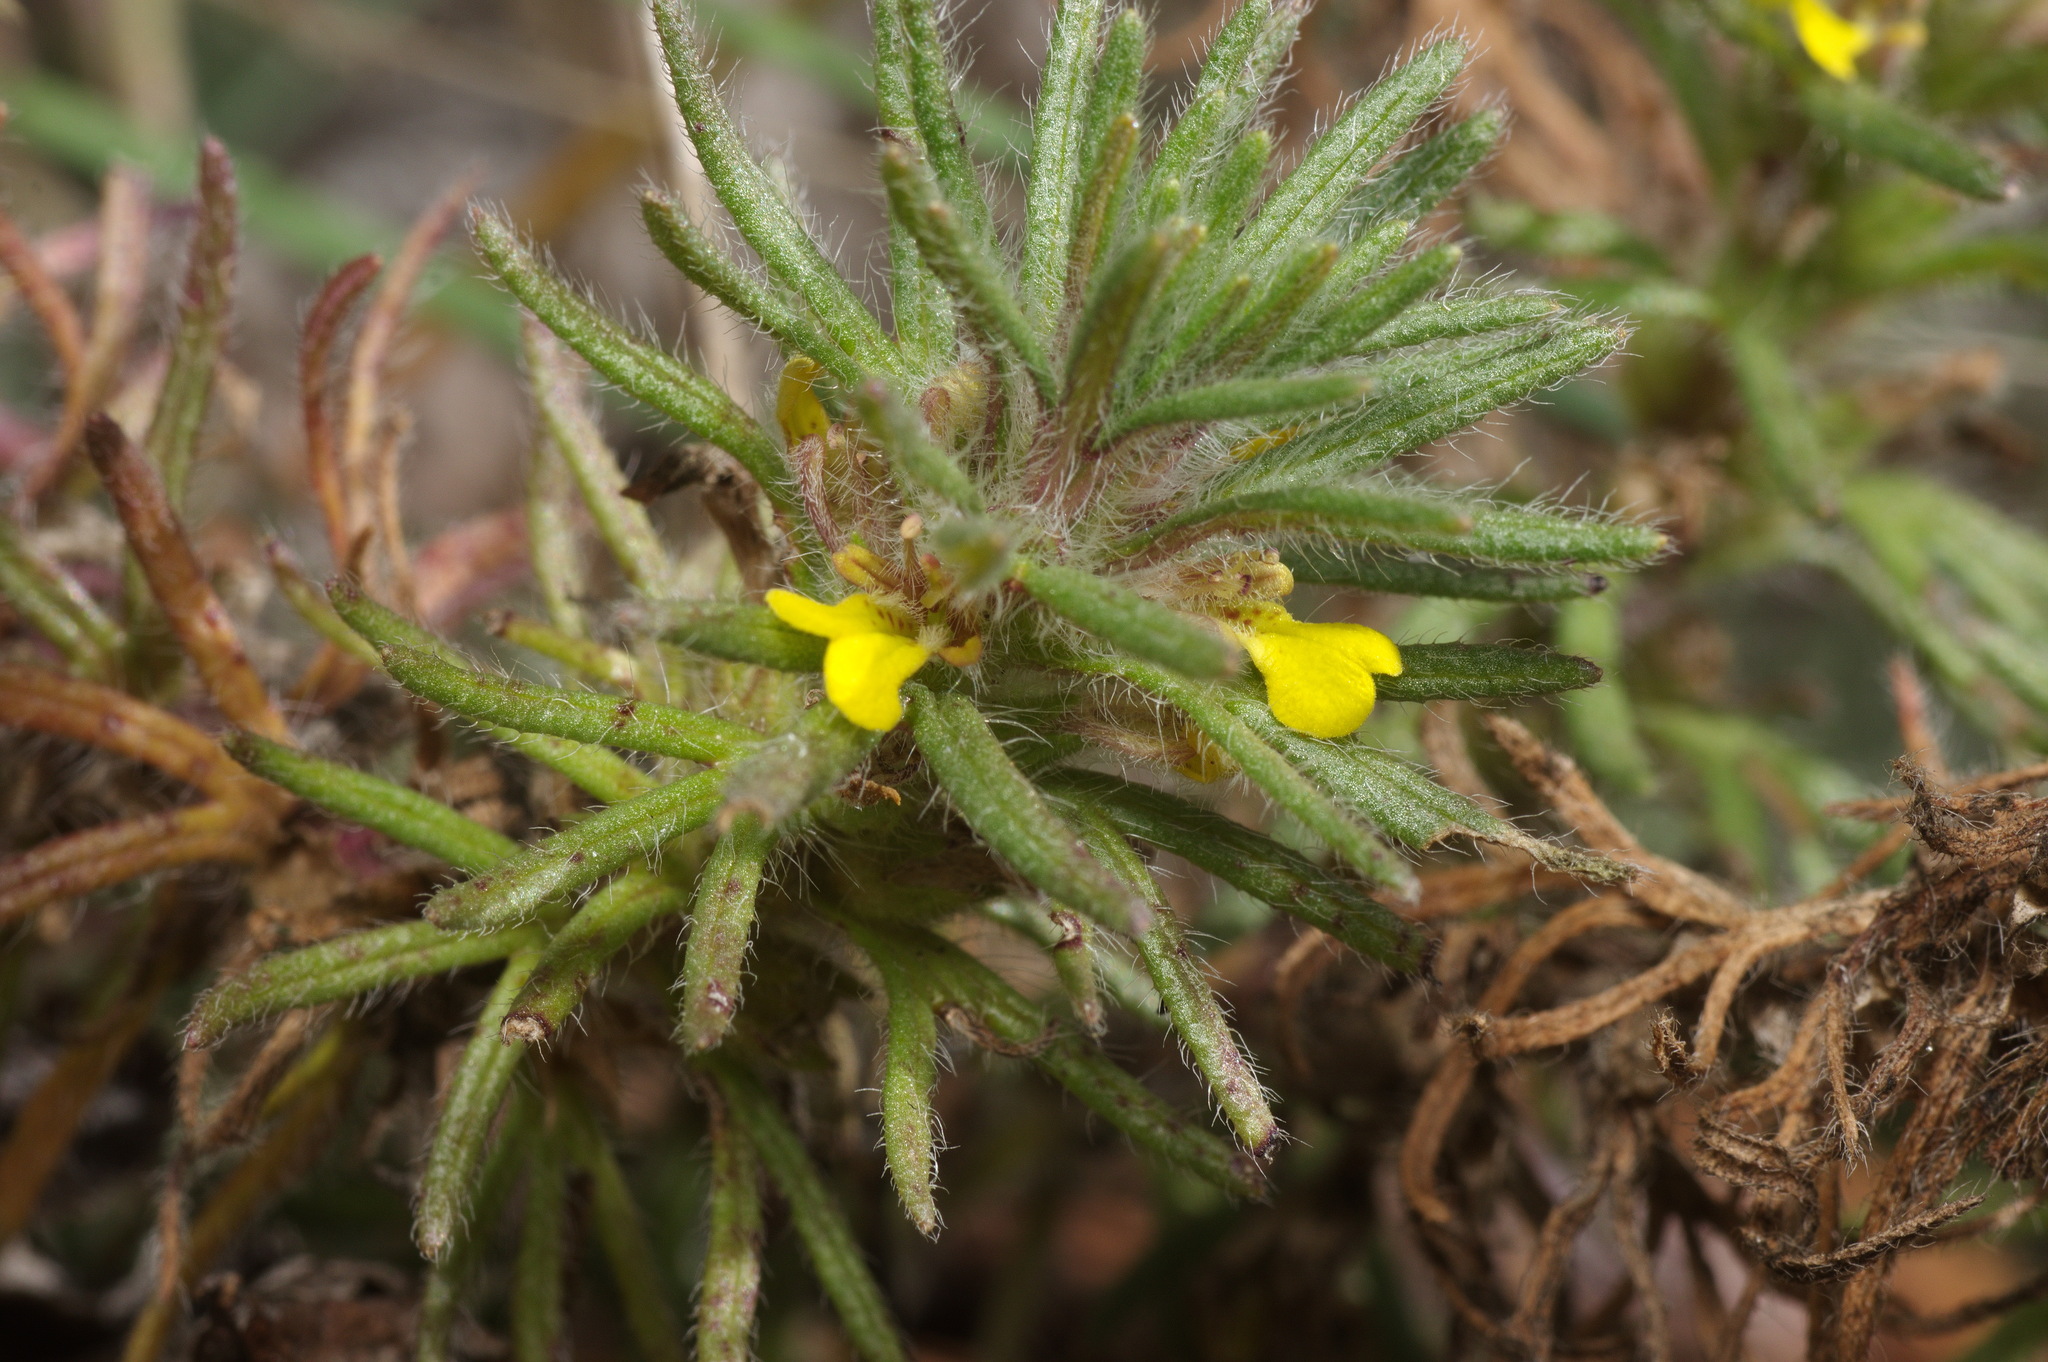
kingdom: Plantae
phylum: Tracheophyta
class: Magnoliopsida
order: Lamiales
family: Lamiaceae
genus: Ajuga
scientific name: Ajuga chamaepitys
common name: Ground-pine
